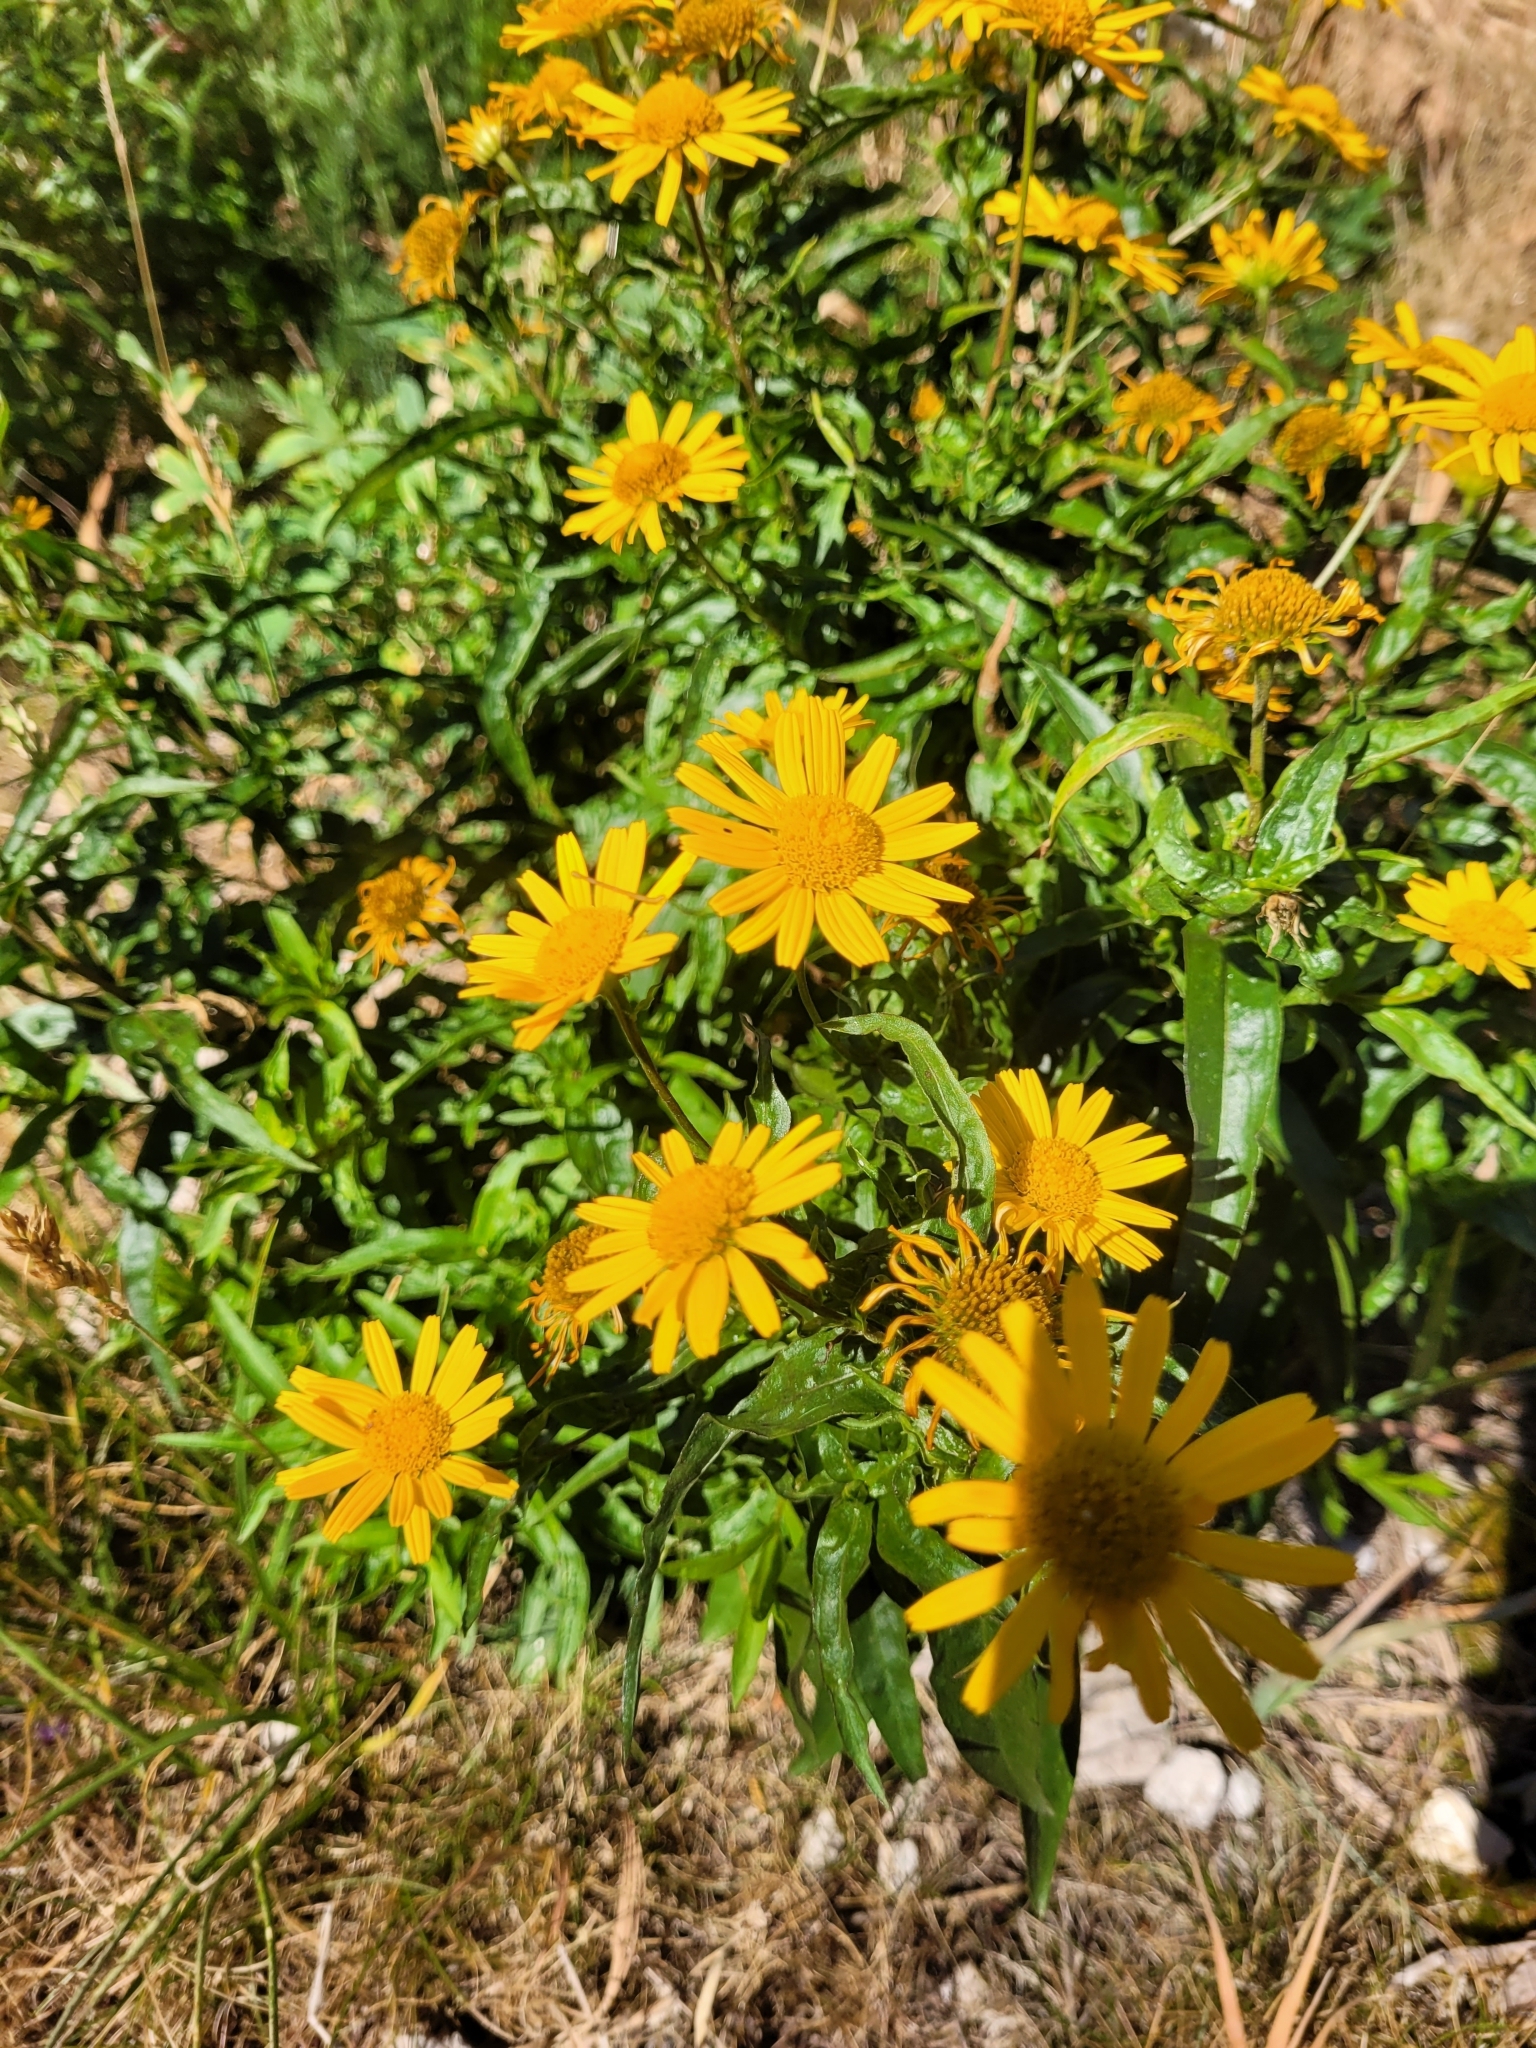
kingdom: Plantae
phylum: Tracheophyta
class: Magnoliopsida
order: Asterales
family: Asteraceae
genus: Buphthalmum
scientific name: Buphthalmum salicifolium
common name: Willow-leaved yellow-oxeye
